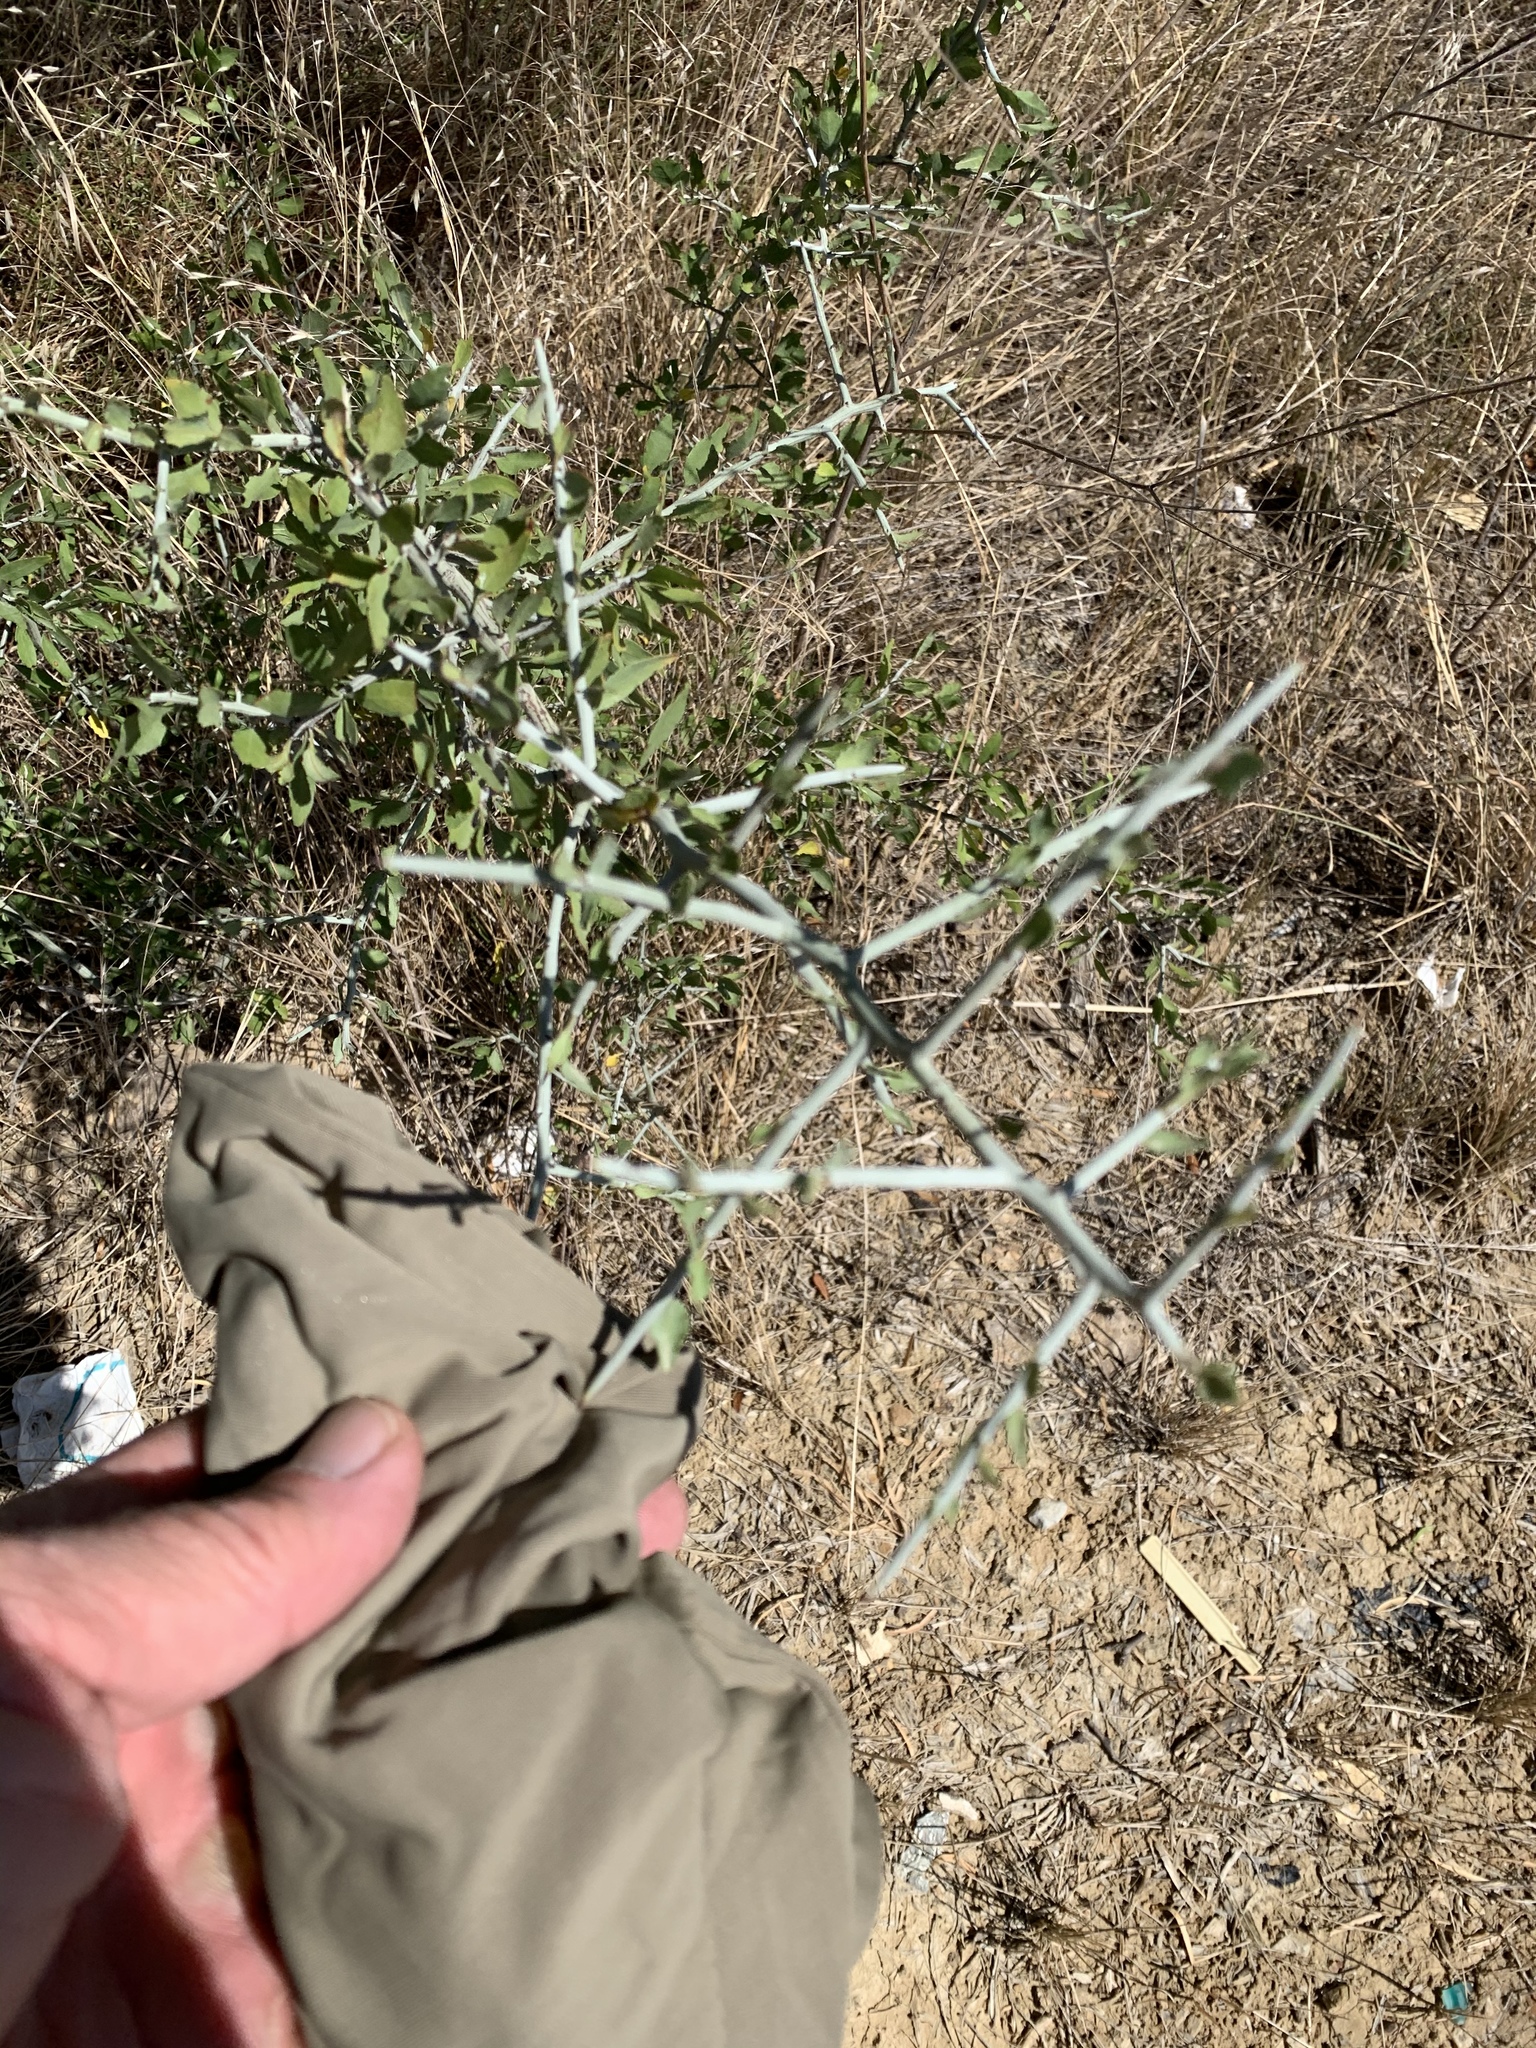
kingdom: Plantae
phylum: Tracheophyta
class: Magnoliopsida
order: Rosales
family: Rhamnaceae
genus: Sarcomphalus
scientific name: Sarcomphalus obtusifolius
